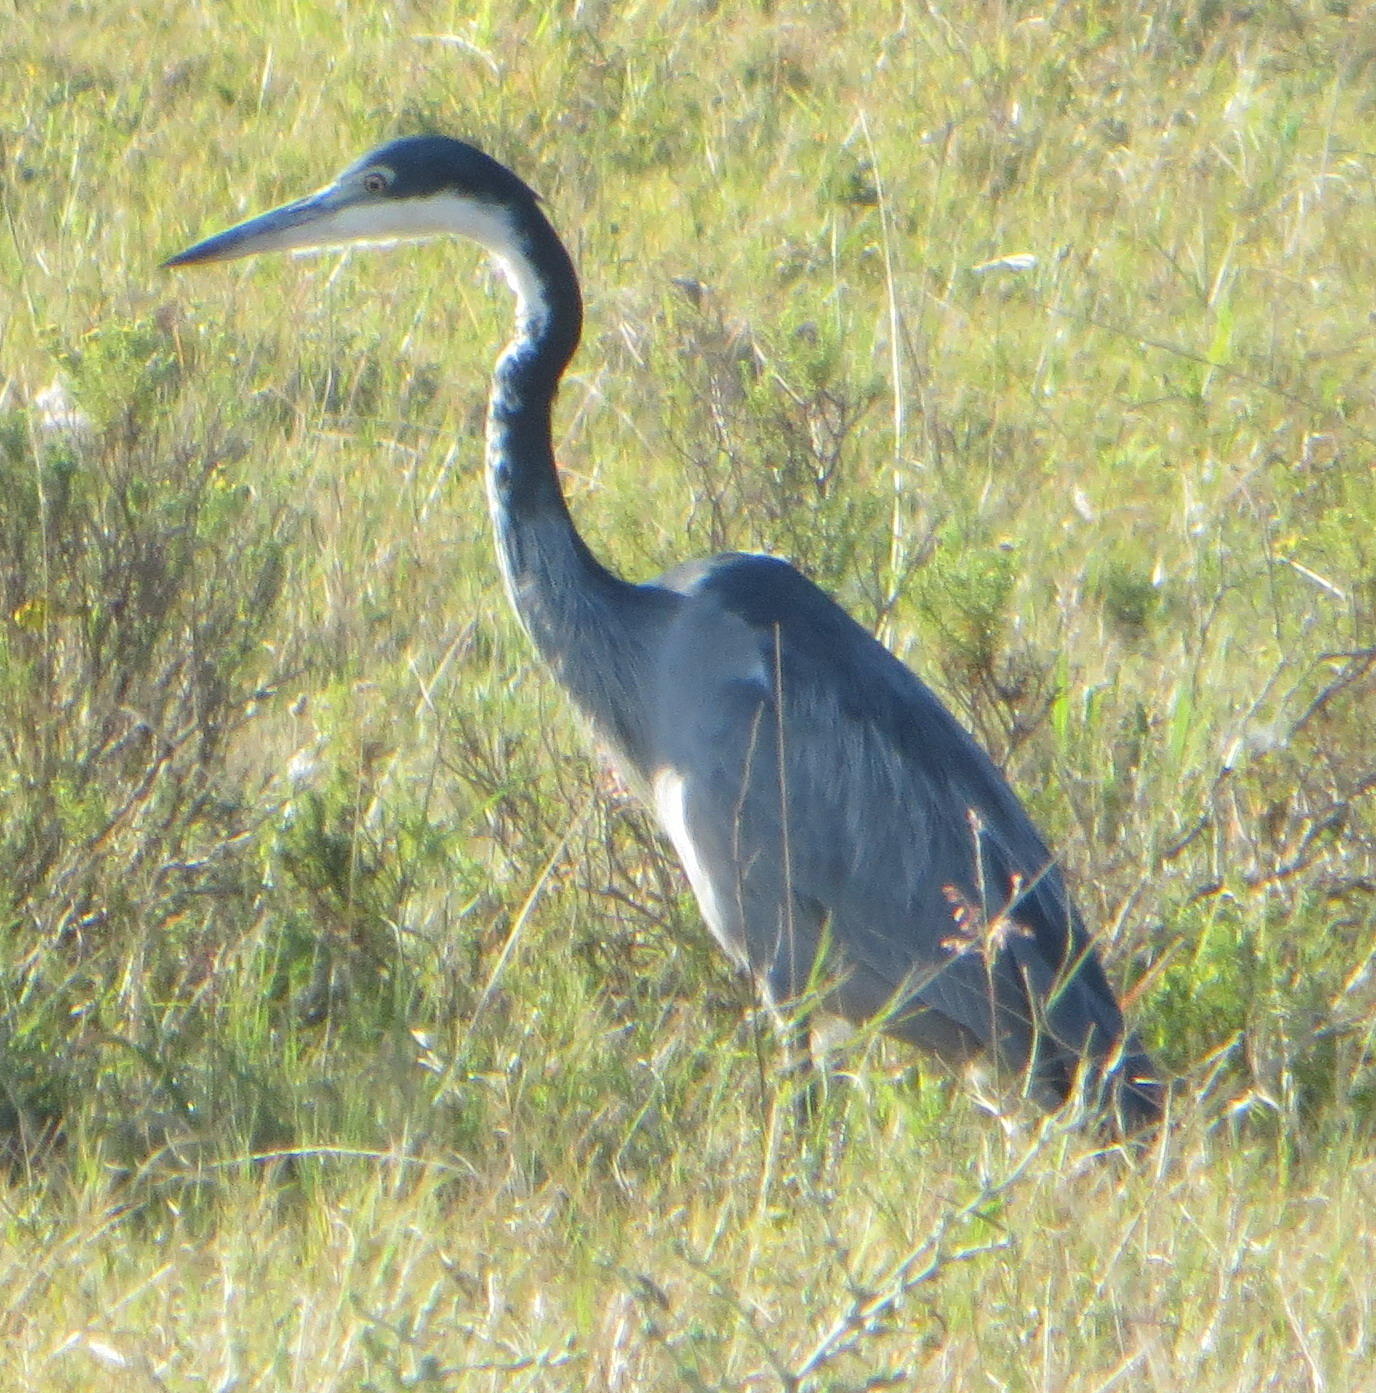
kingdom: Animalia
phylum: Chordata
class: Aves
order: Pelecaniformes
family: Ardeidae
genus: Ardea
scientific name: Ardea melanocephala
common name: Black-headed heron
